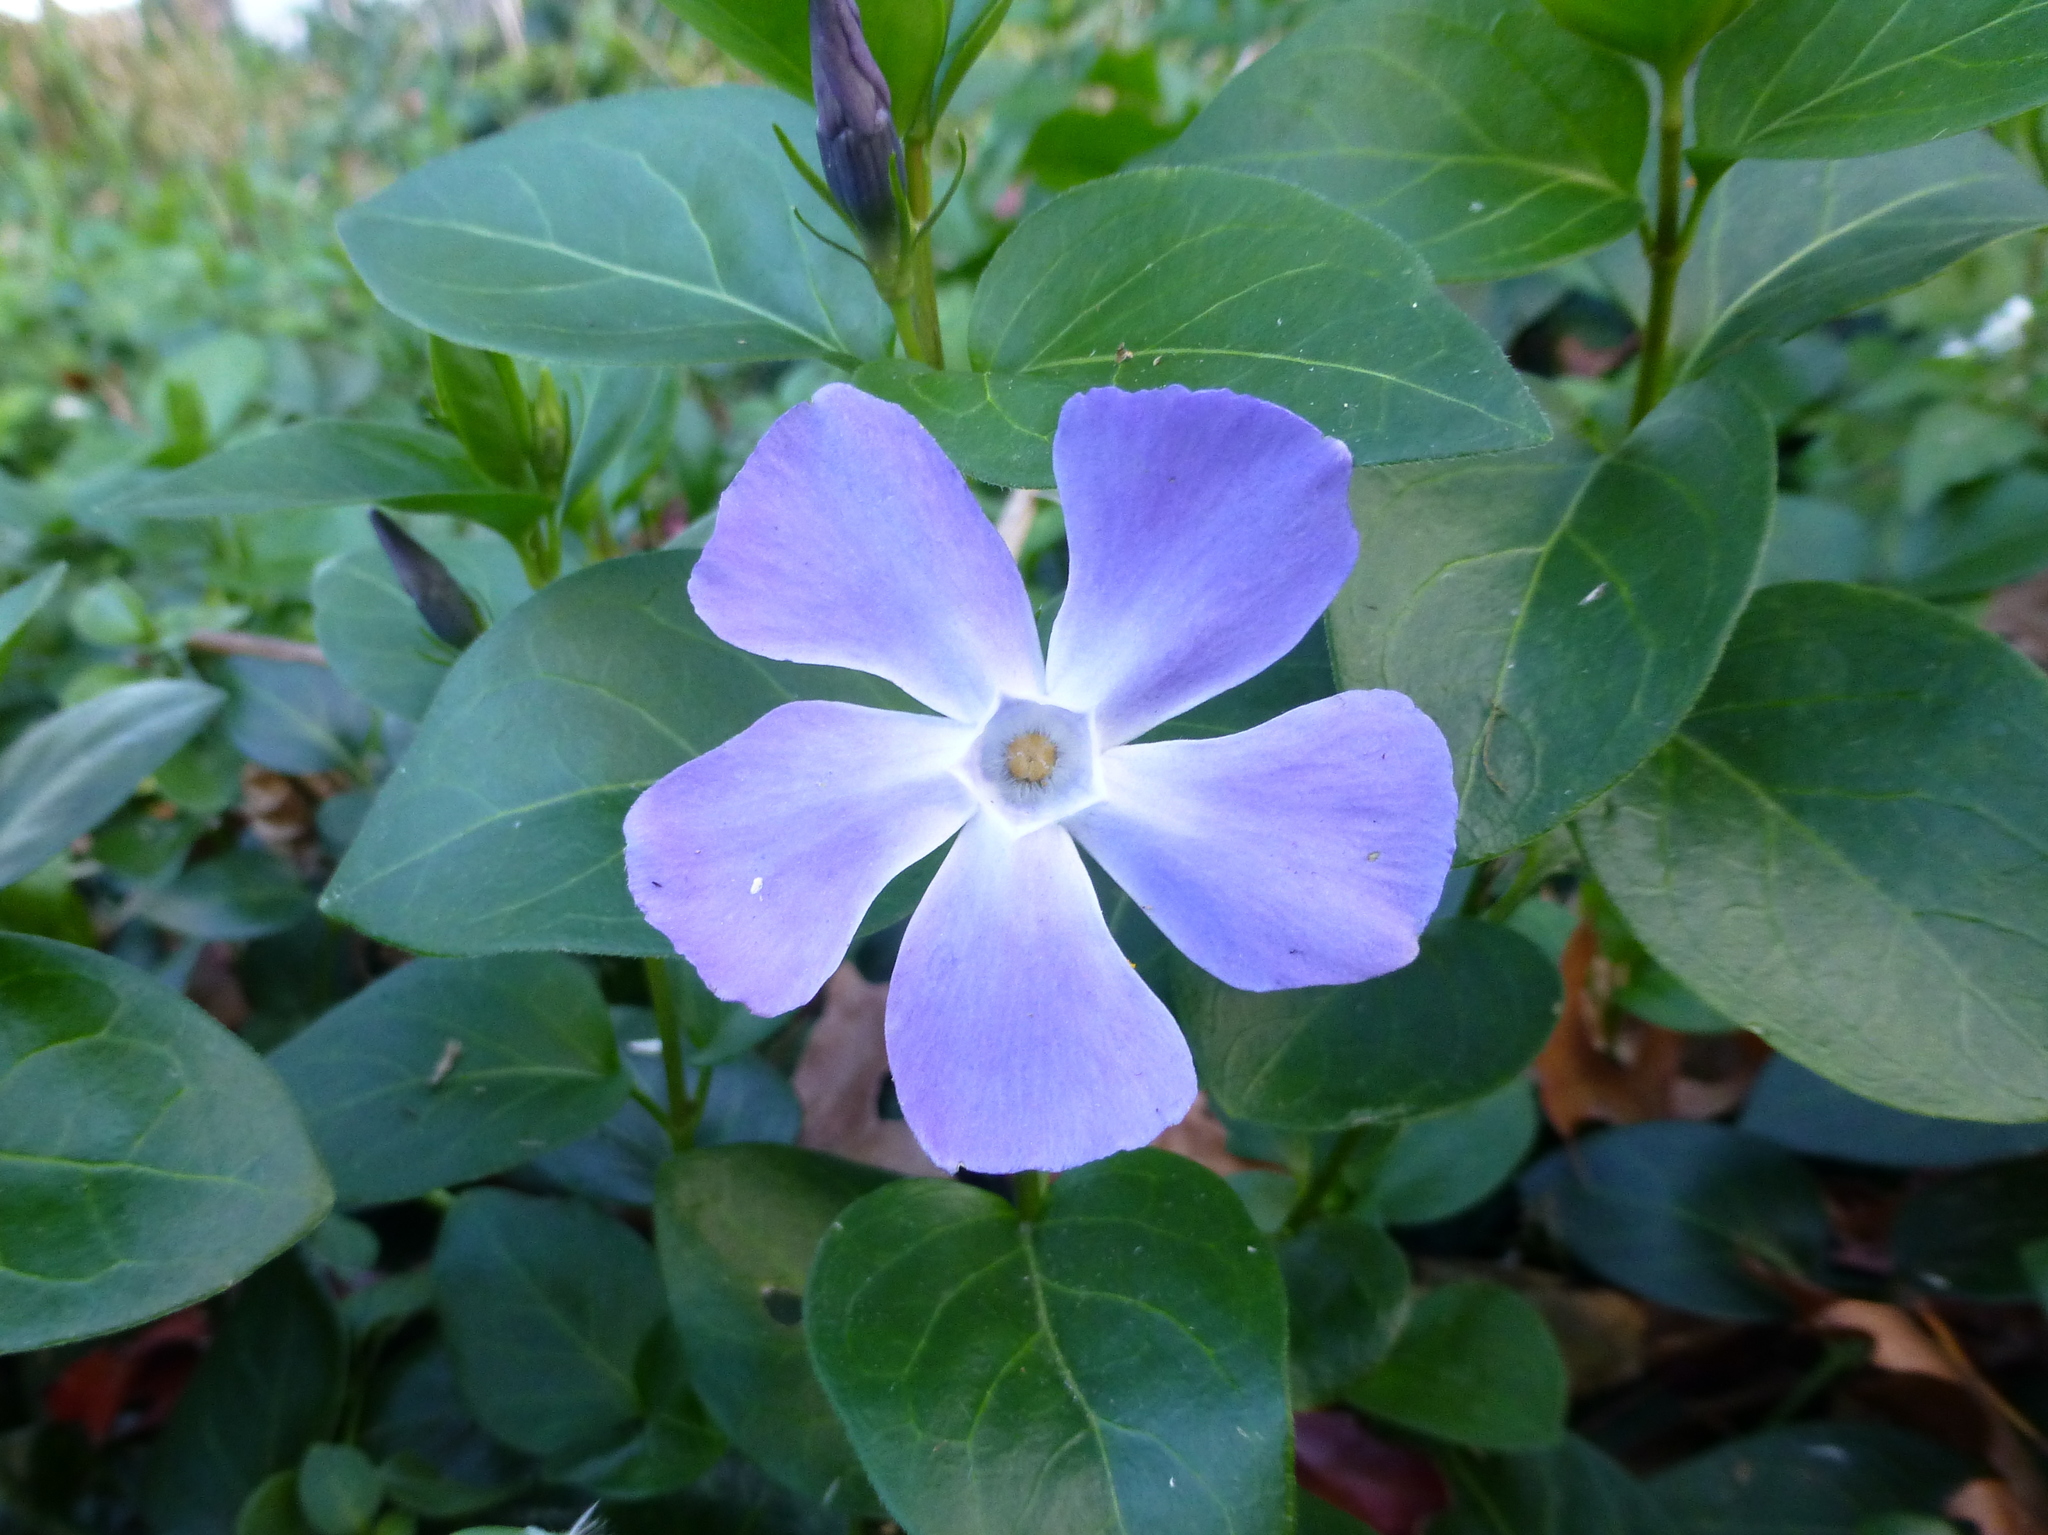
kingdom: Plantae
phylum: Tracheophyta
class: Magnoliopsida
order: Gentianales
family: Apocynaceae
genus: Vinca
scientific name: Vinca major
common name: Greater periwinkle
